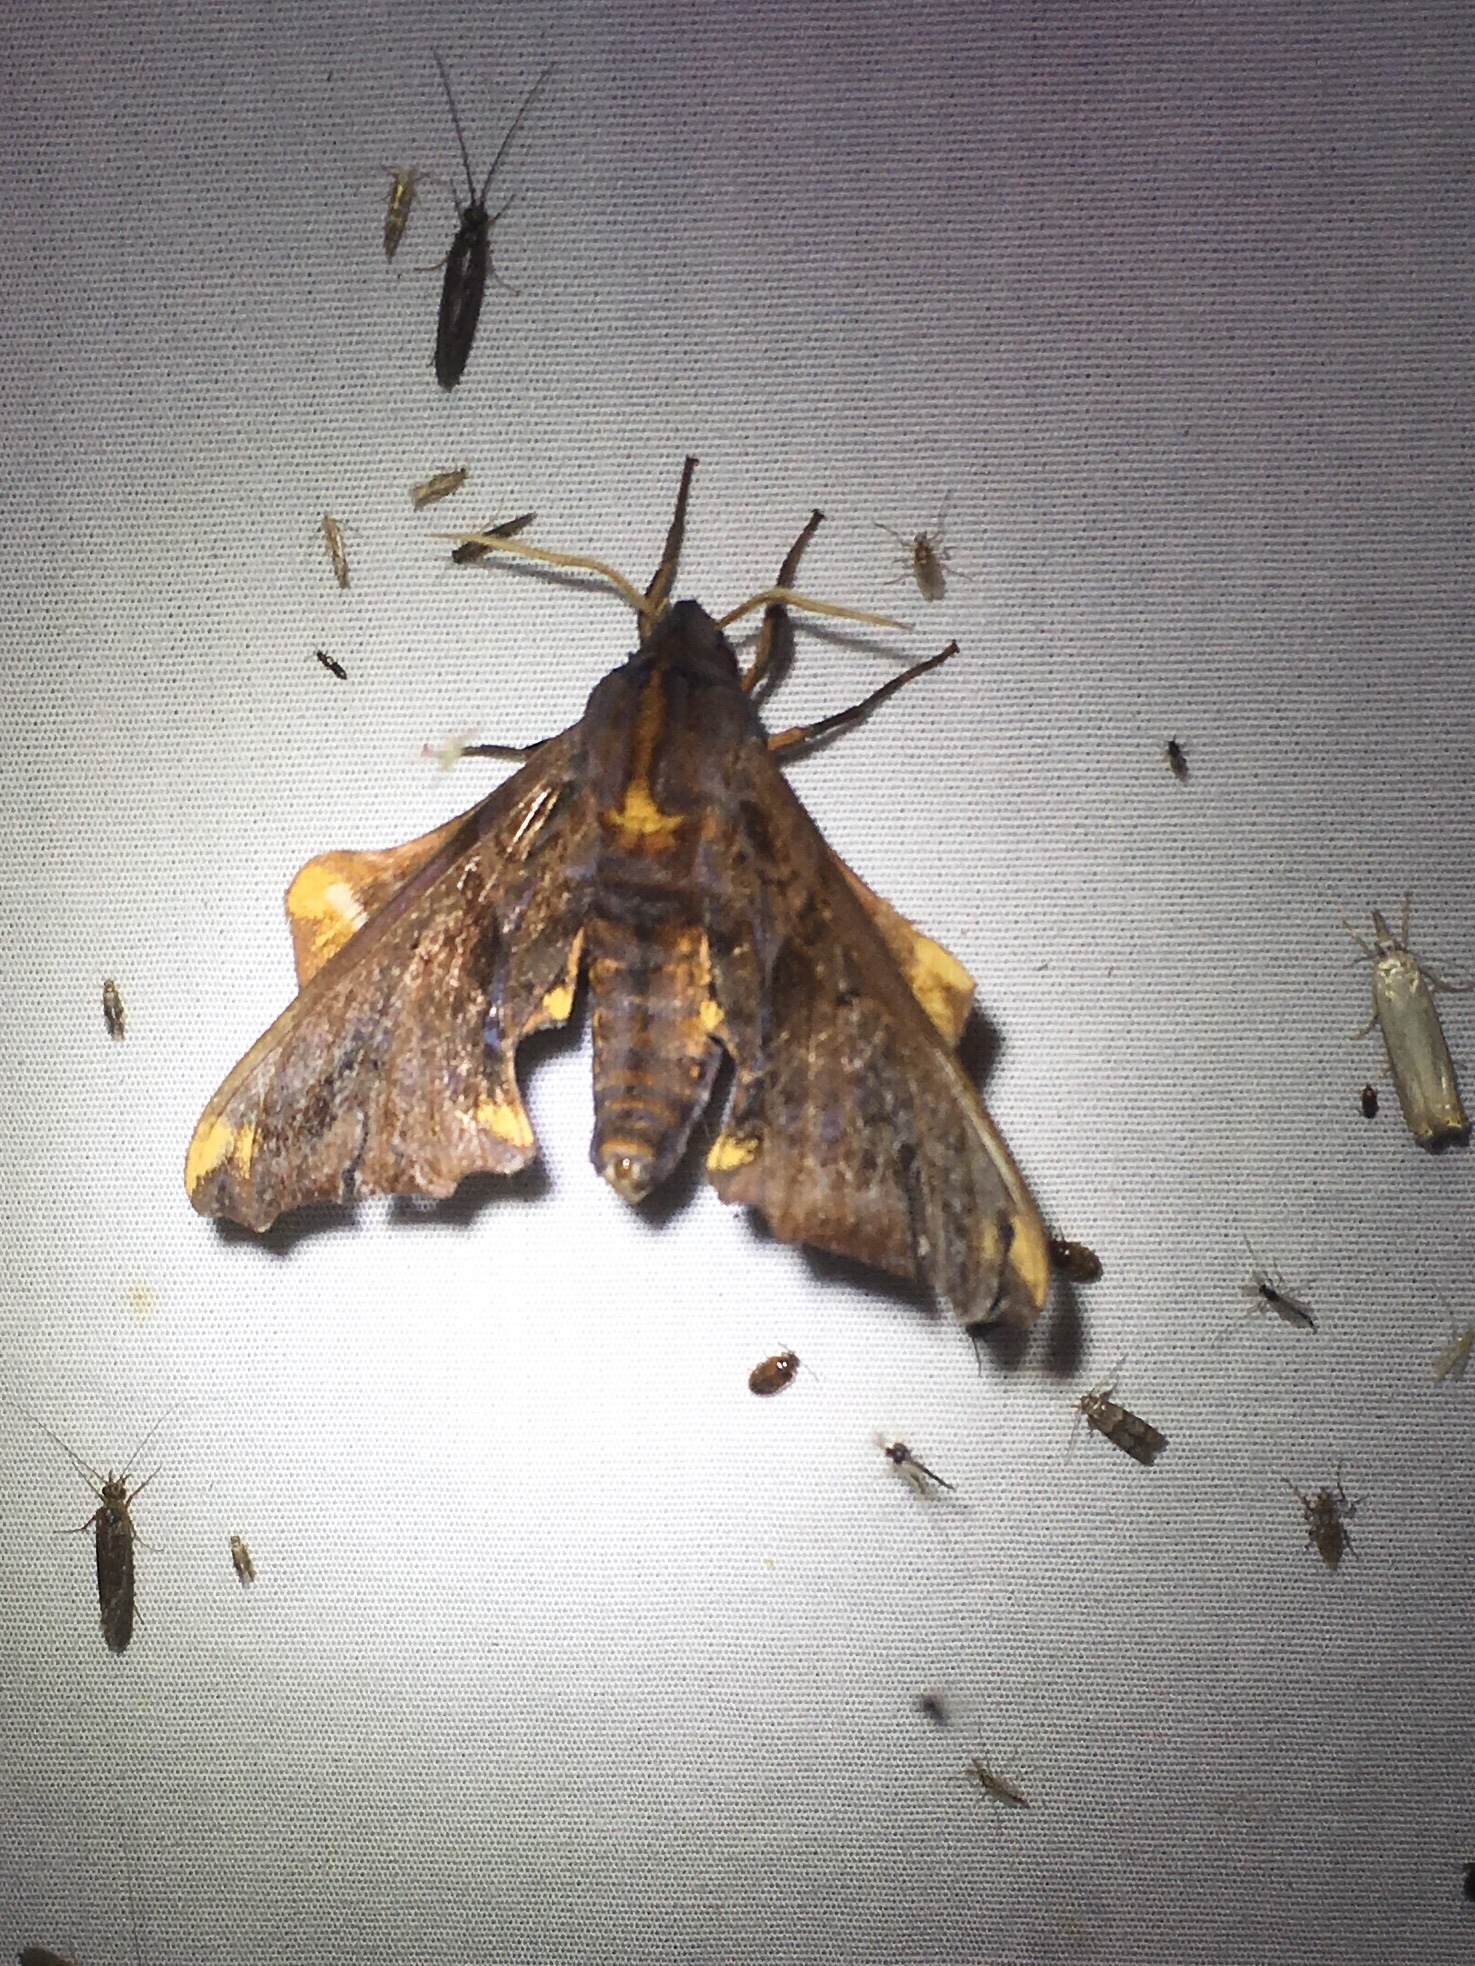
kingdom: Animalia
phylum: Arthropoda
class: Insecta
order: Lepidoptera
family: Sphingidae
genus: Paonias
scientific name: Paonias myops
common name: Small-eyed sphinx
